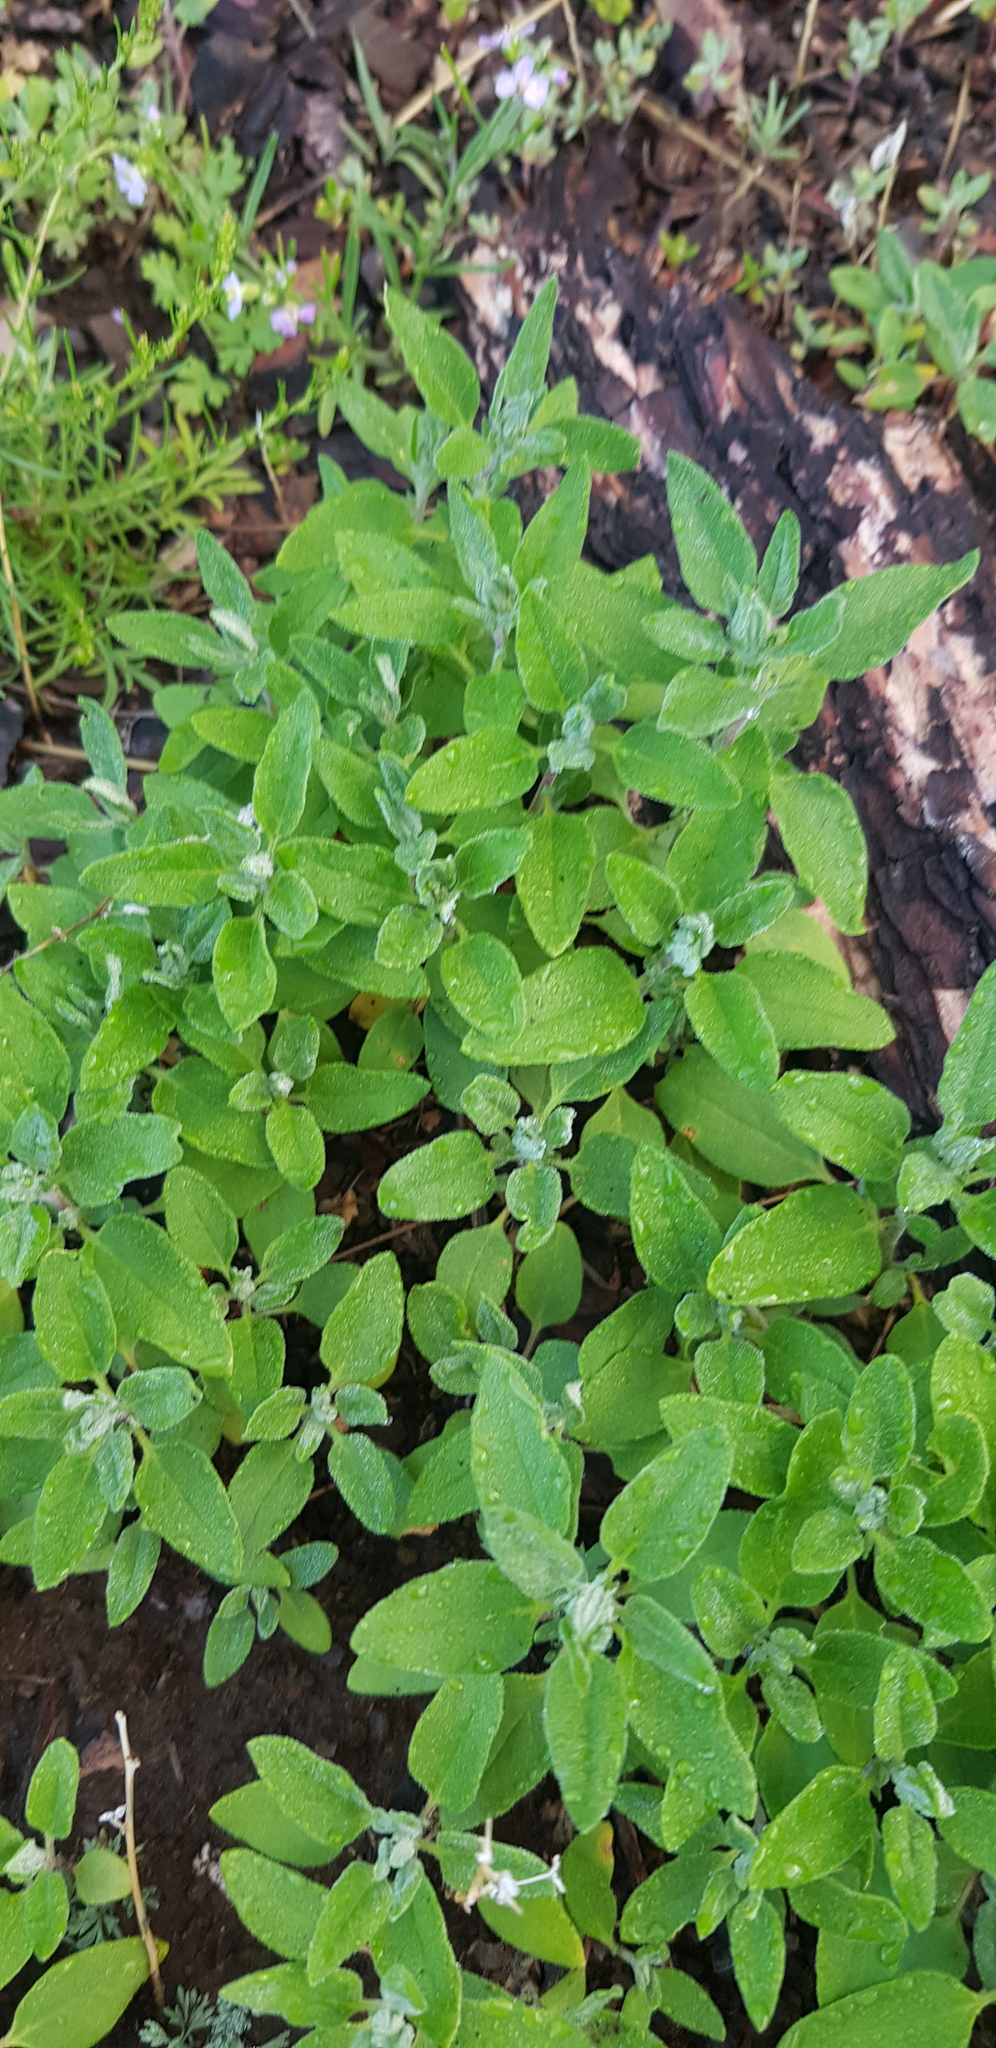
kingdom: Plantae
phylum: Tracheophyta
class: Magnoliopsida
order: Caryophyllales
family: Amaranthaceae
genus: Chenopodium
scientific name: Chenopodium acuminatum
